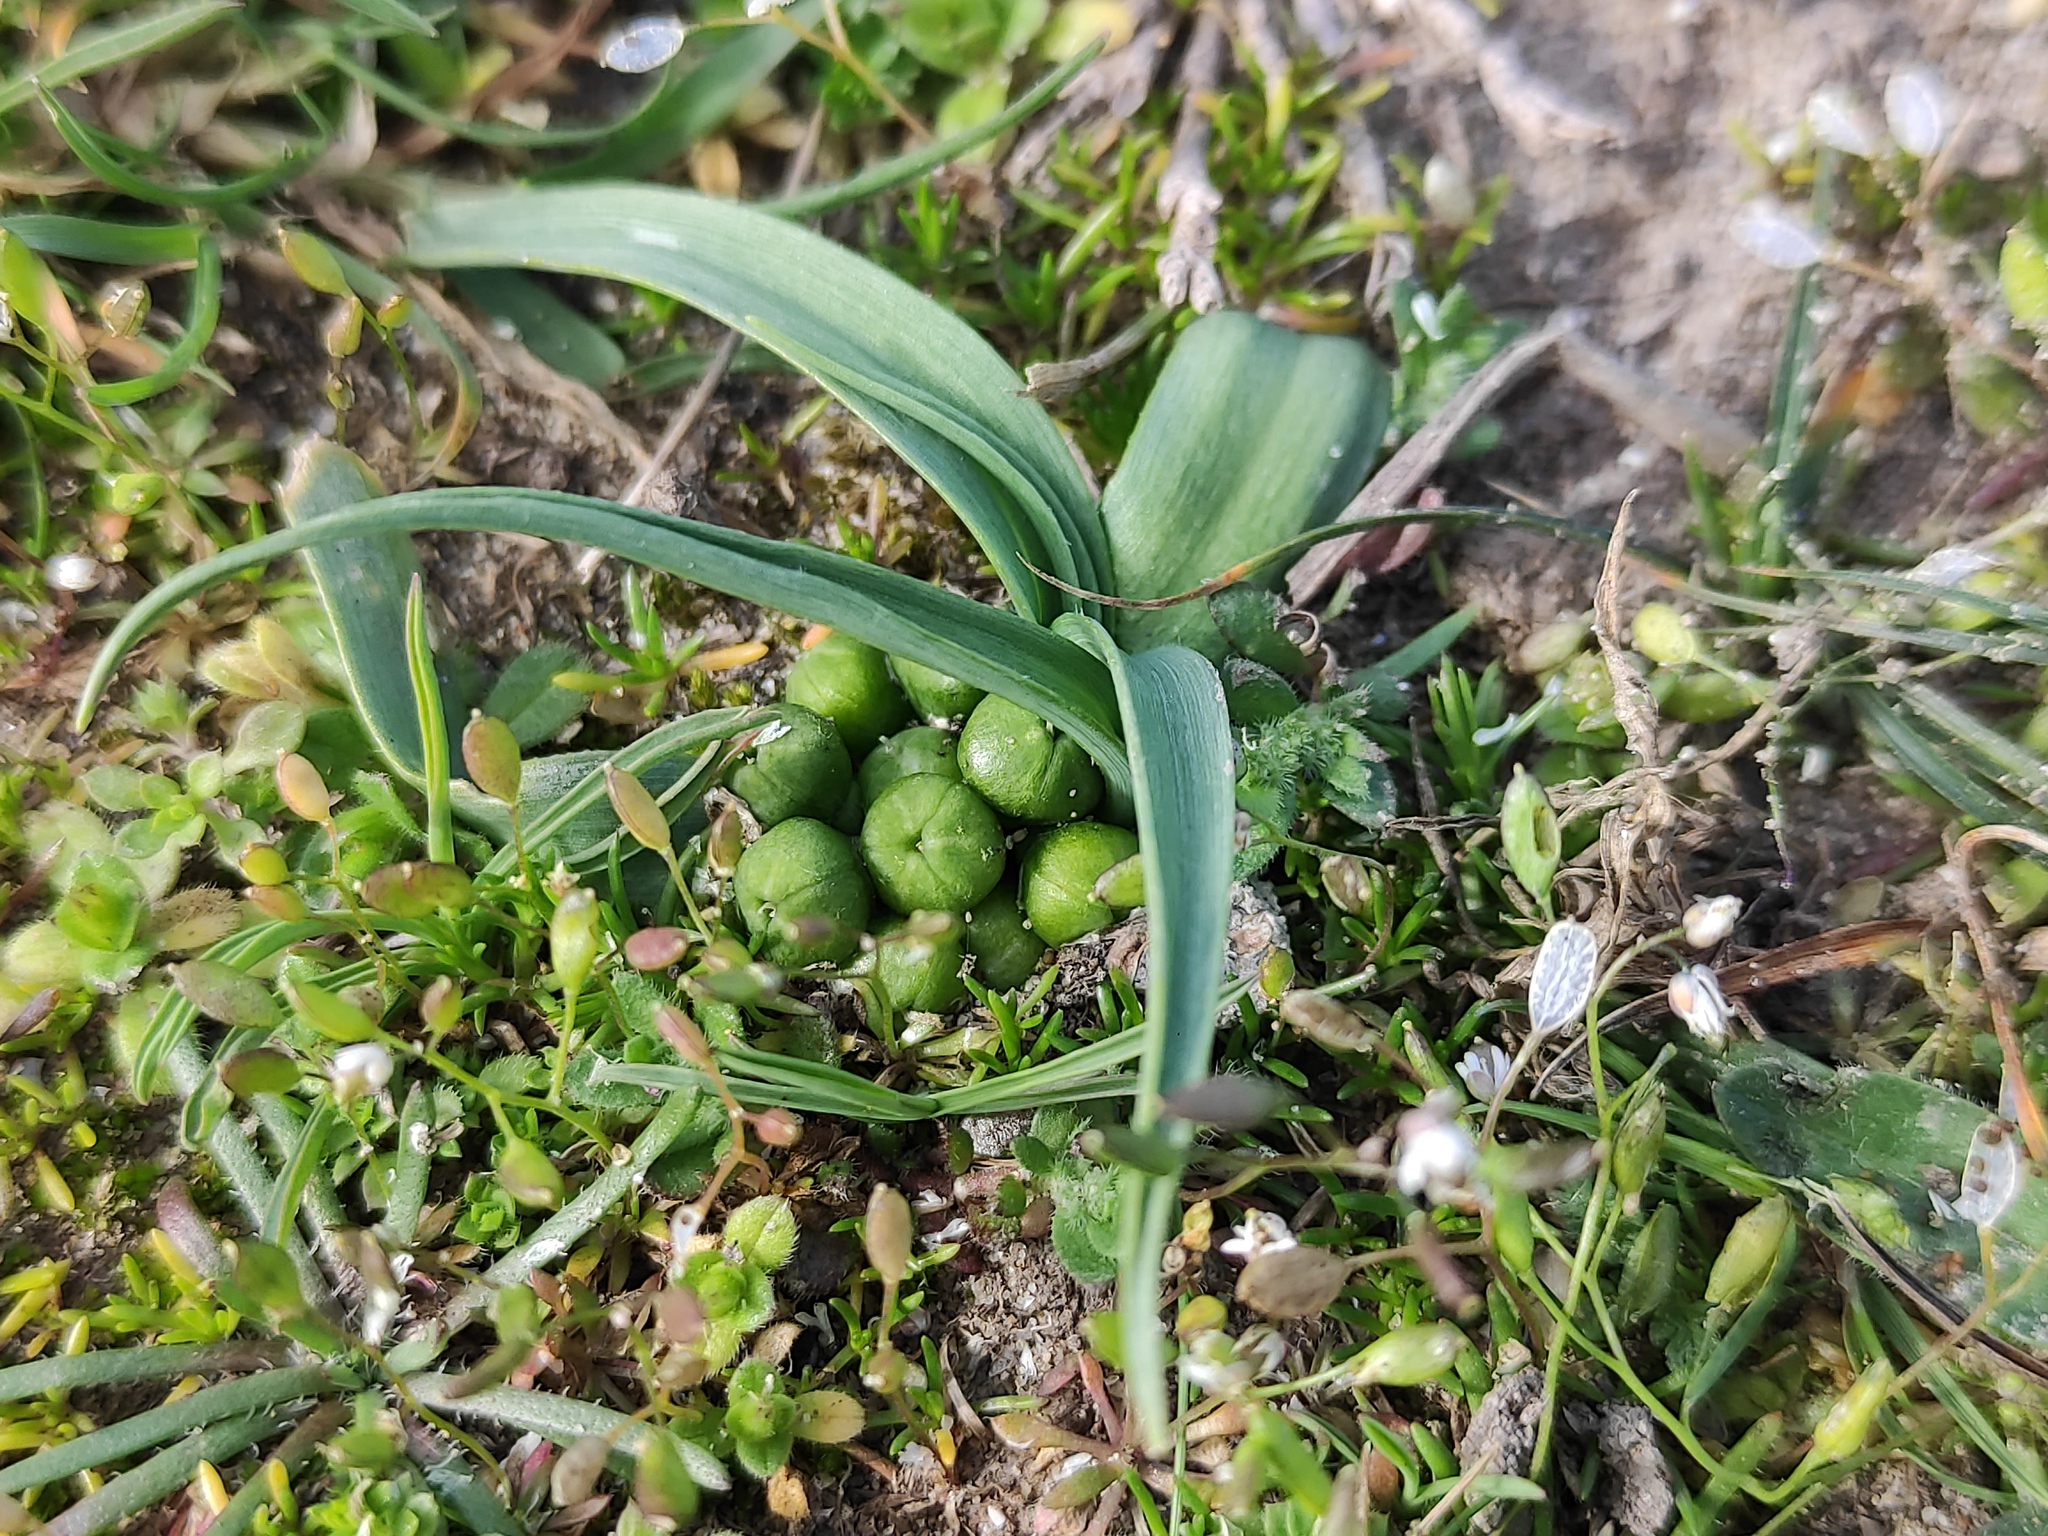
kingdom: Plantae
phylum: Tracheophyta
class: Liliopsida
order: Asparagales
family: Amaryllidaceae
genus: Allium
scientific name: Allium chamaemoly
